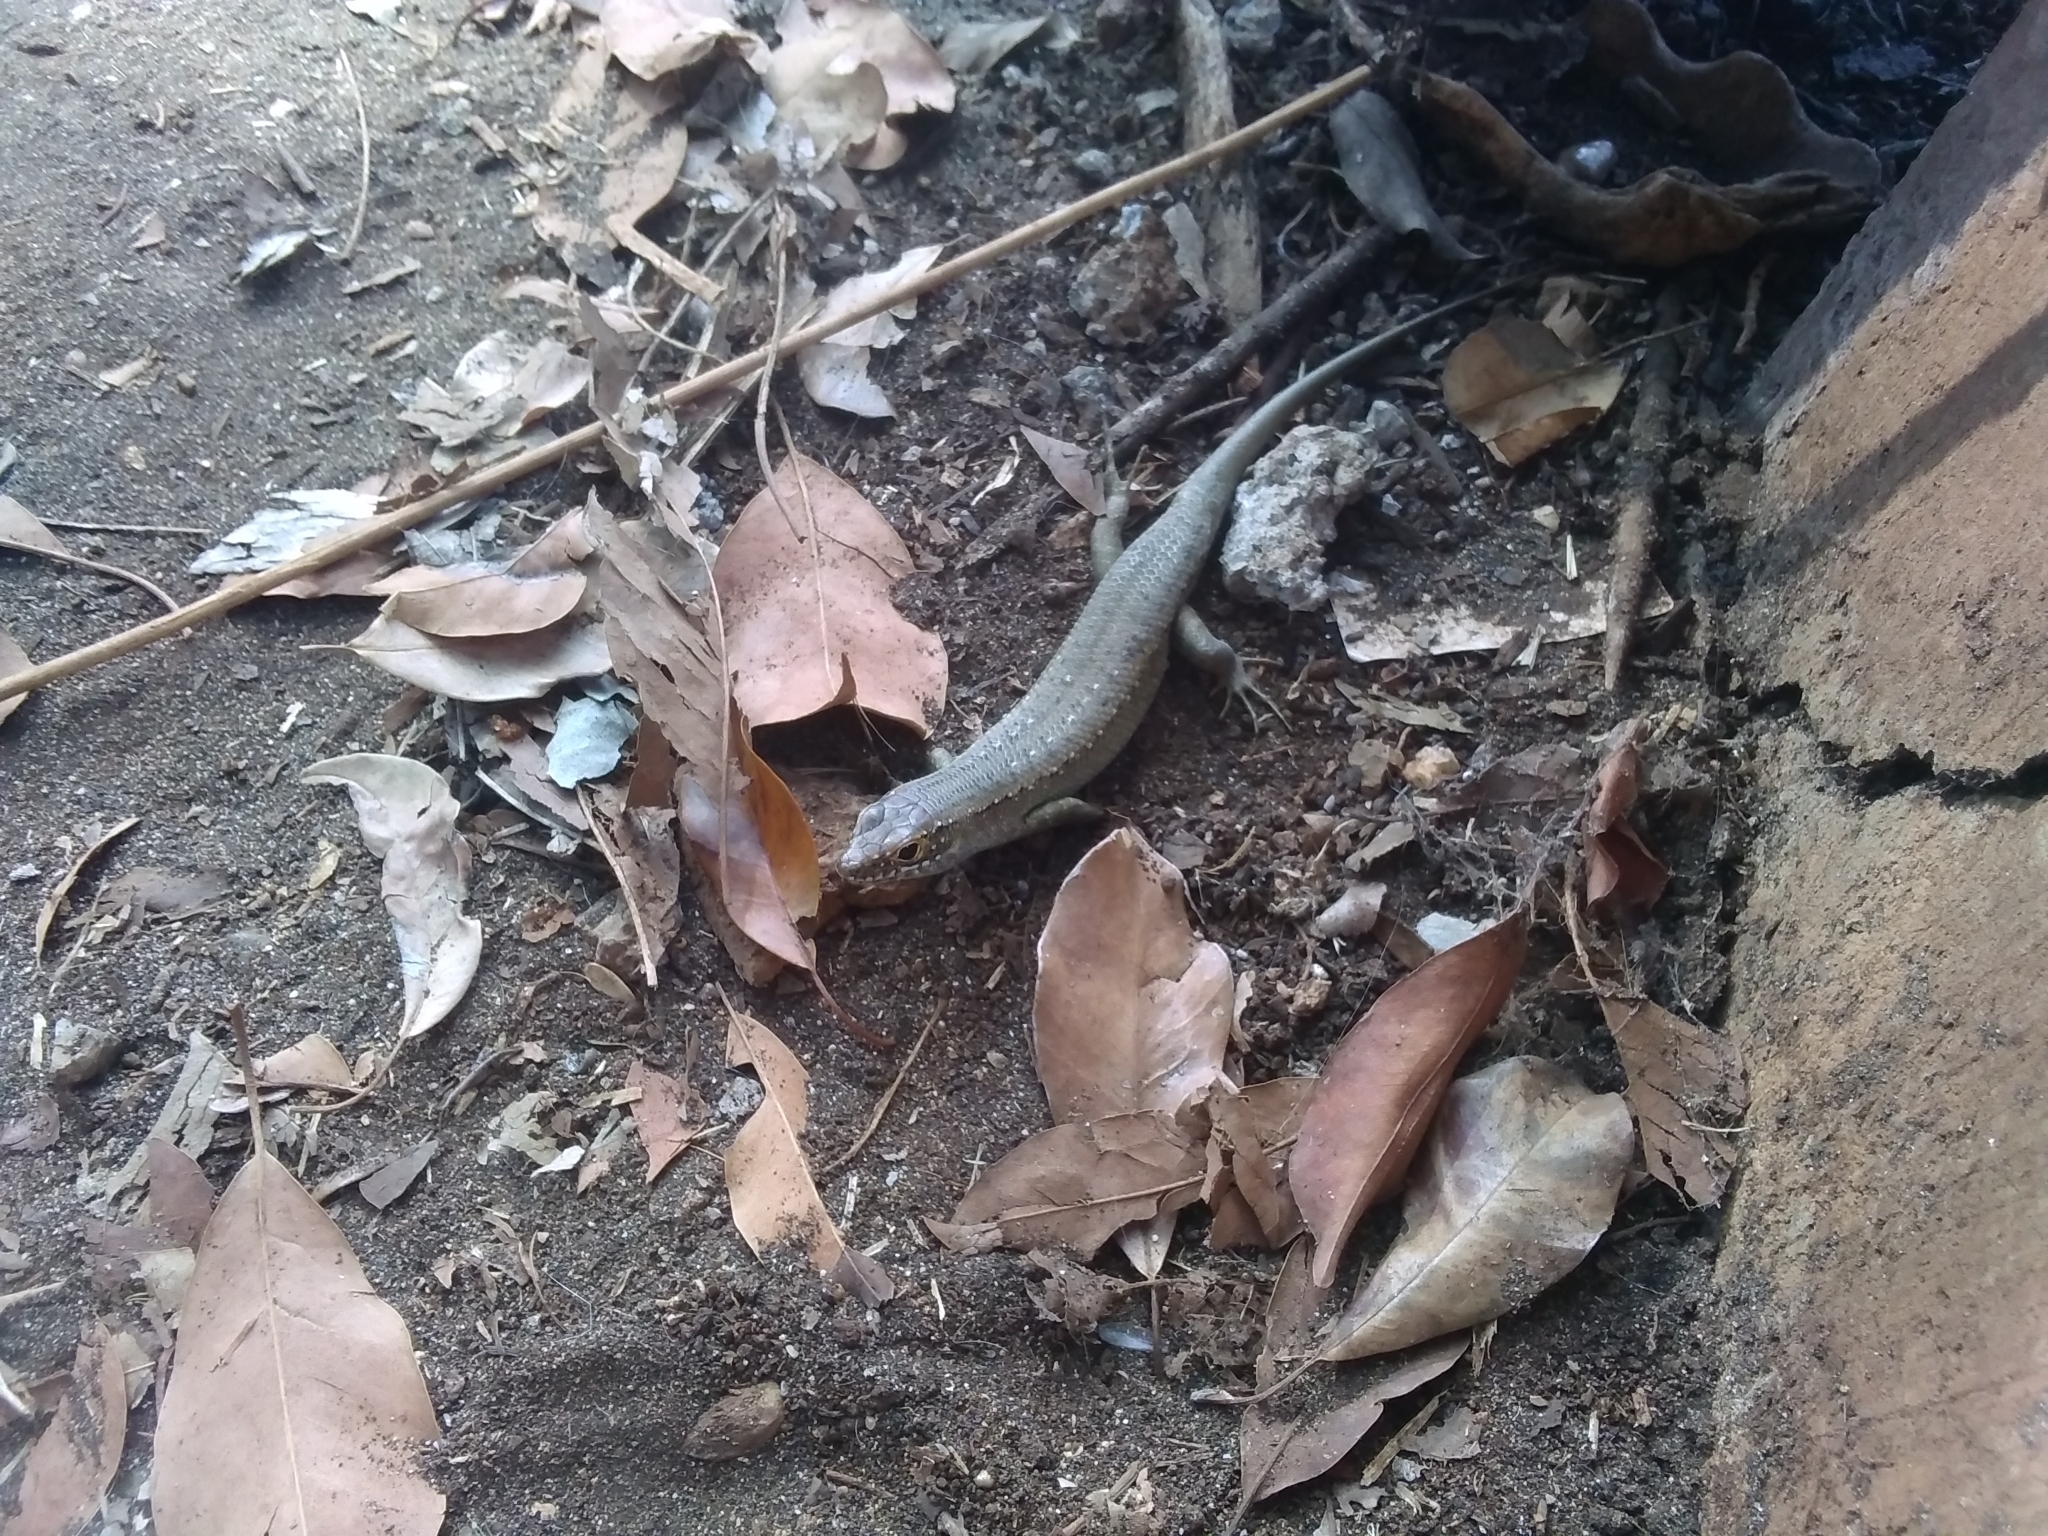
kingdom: Animalia
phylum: Chordata
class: Squamata
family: Scincidae
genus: Trachylepis
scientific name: Trachylepis comorensis
